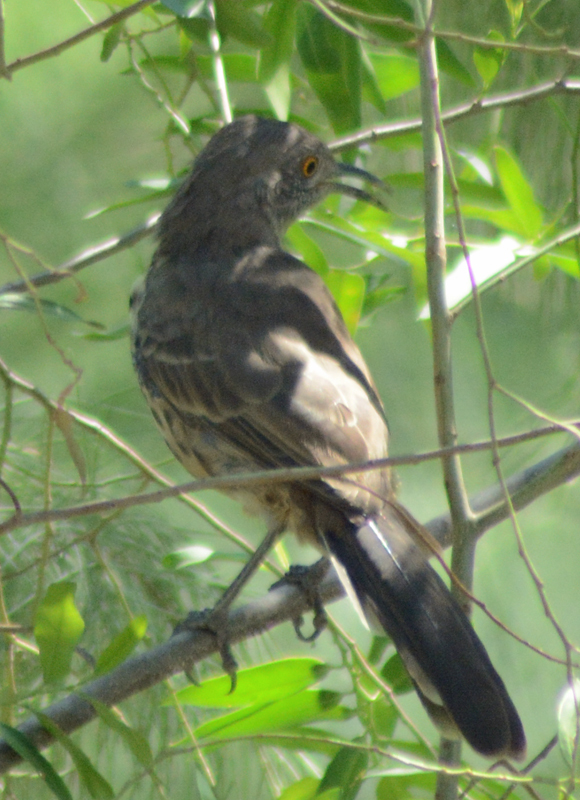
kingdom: Animalia
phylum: Chordata
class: Aves
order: Passeriformes
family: Mimidae
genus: Toxostoma
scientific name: Toxostoma cinereum
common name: Gray thrasher
